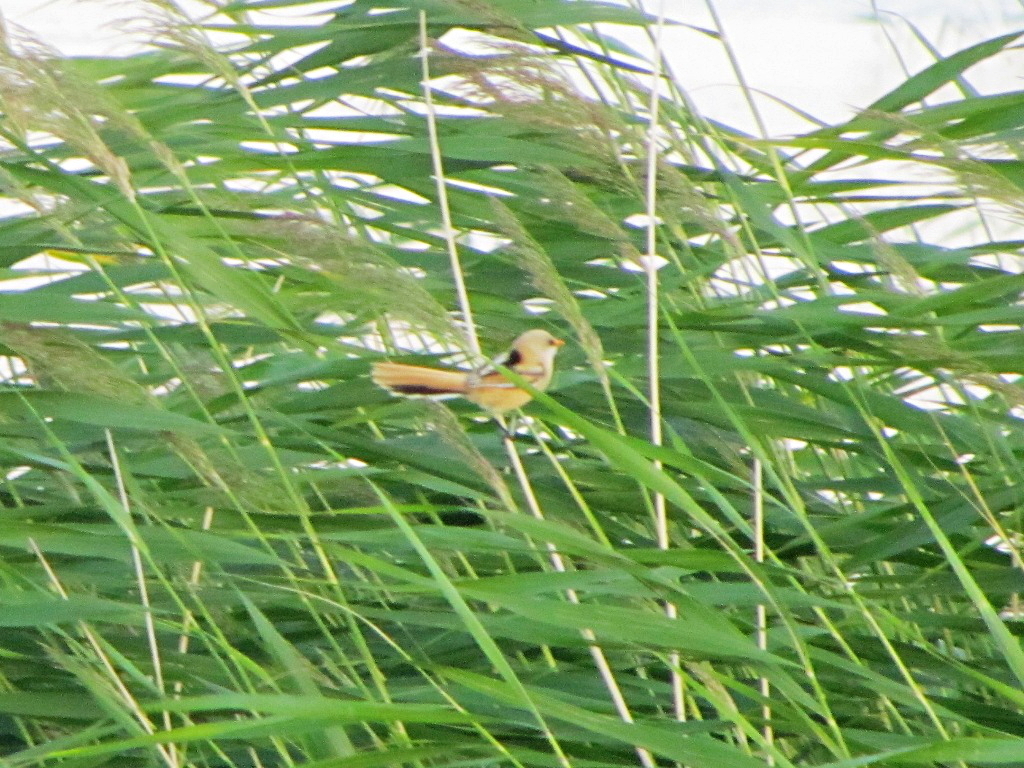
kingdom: Animalia
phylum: Chordata
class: Aves
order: Passeriformes
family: Panuridae
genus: Panurus
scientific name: Panurus biarmicus
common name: Bearded reedling
